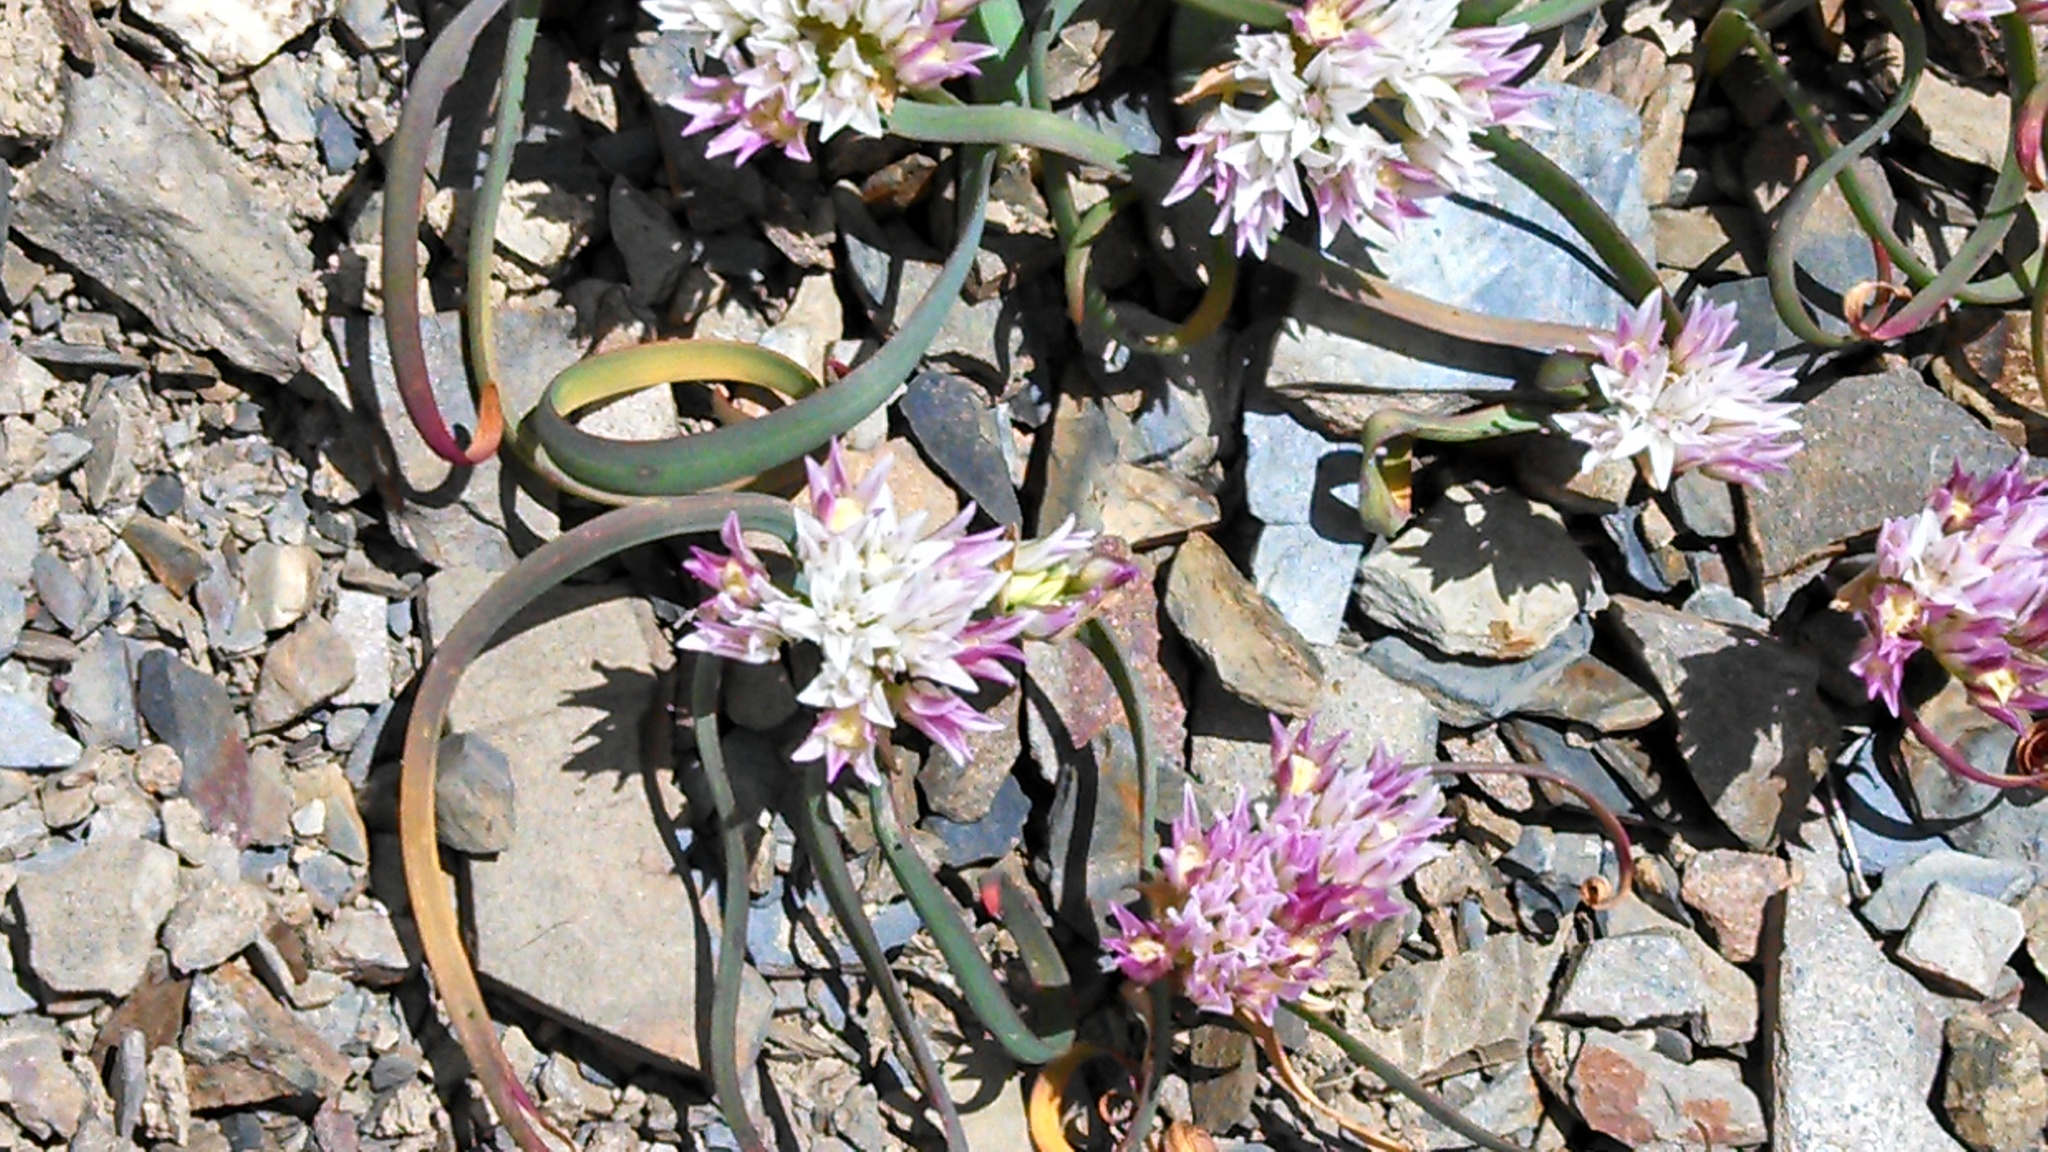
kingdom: Plantae
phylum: Tracheophyta
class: Liliopsida
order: Asparagales
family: Amaryllidaceae
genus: Allium
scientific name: Allium crenulatum
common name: Olympic onion
